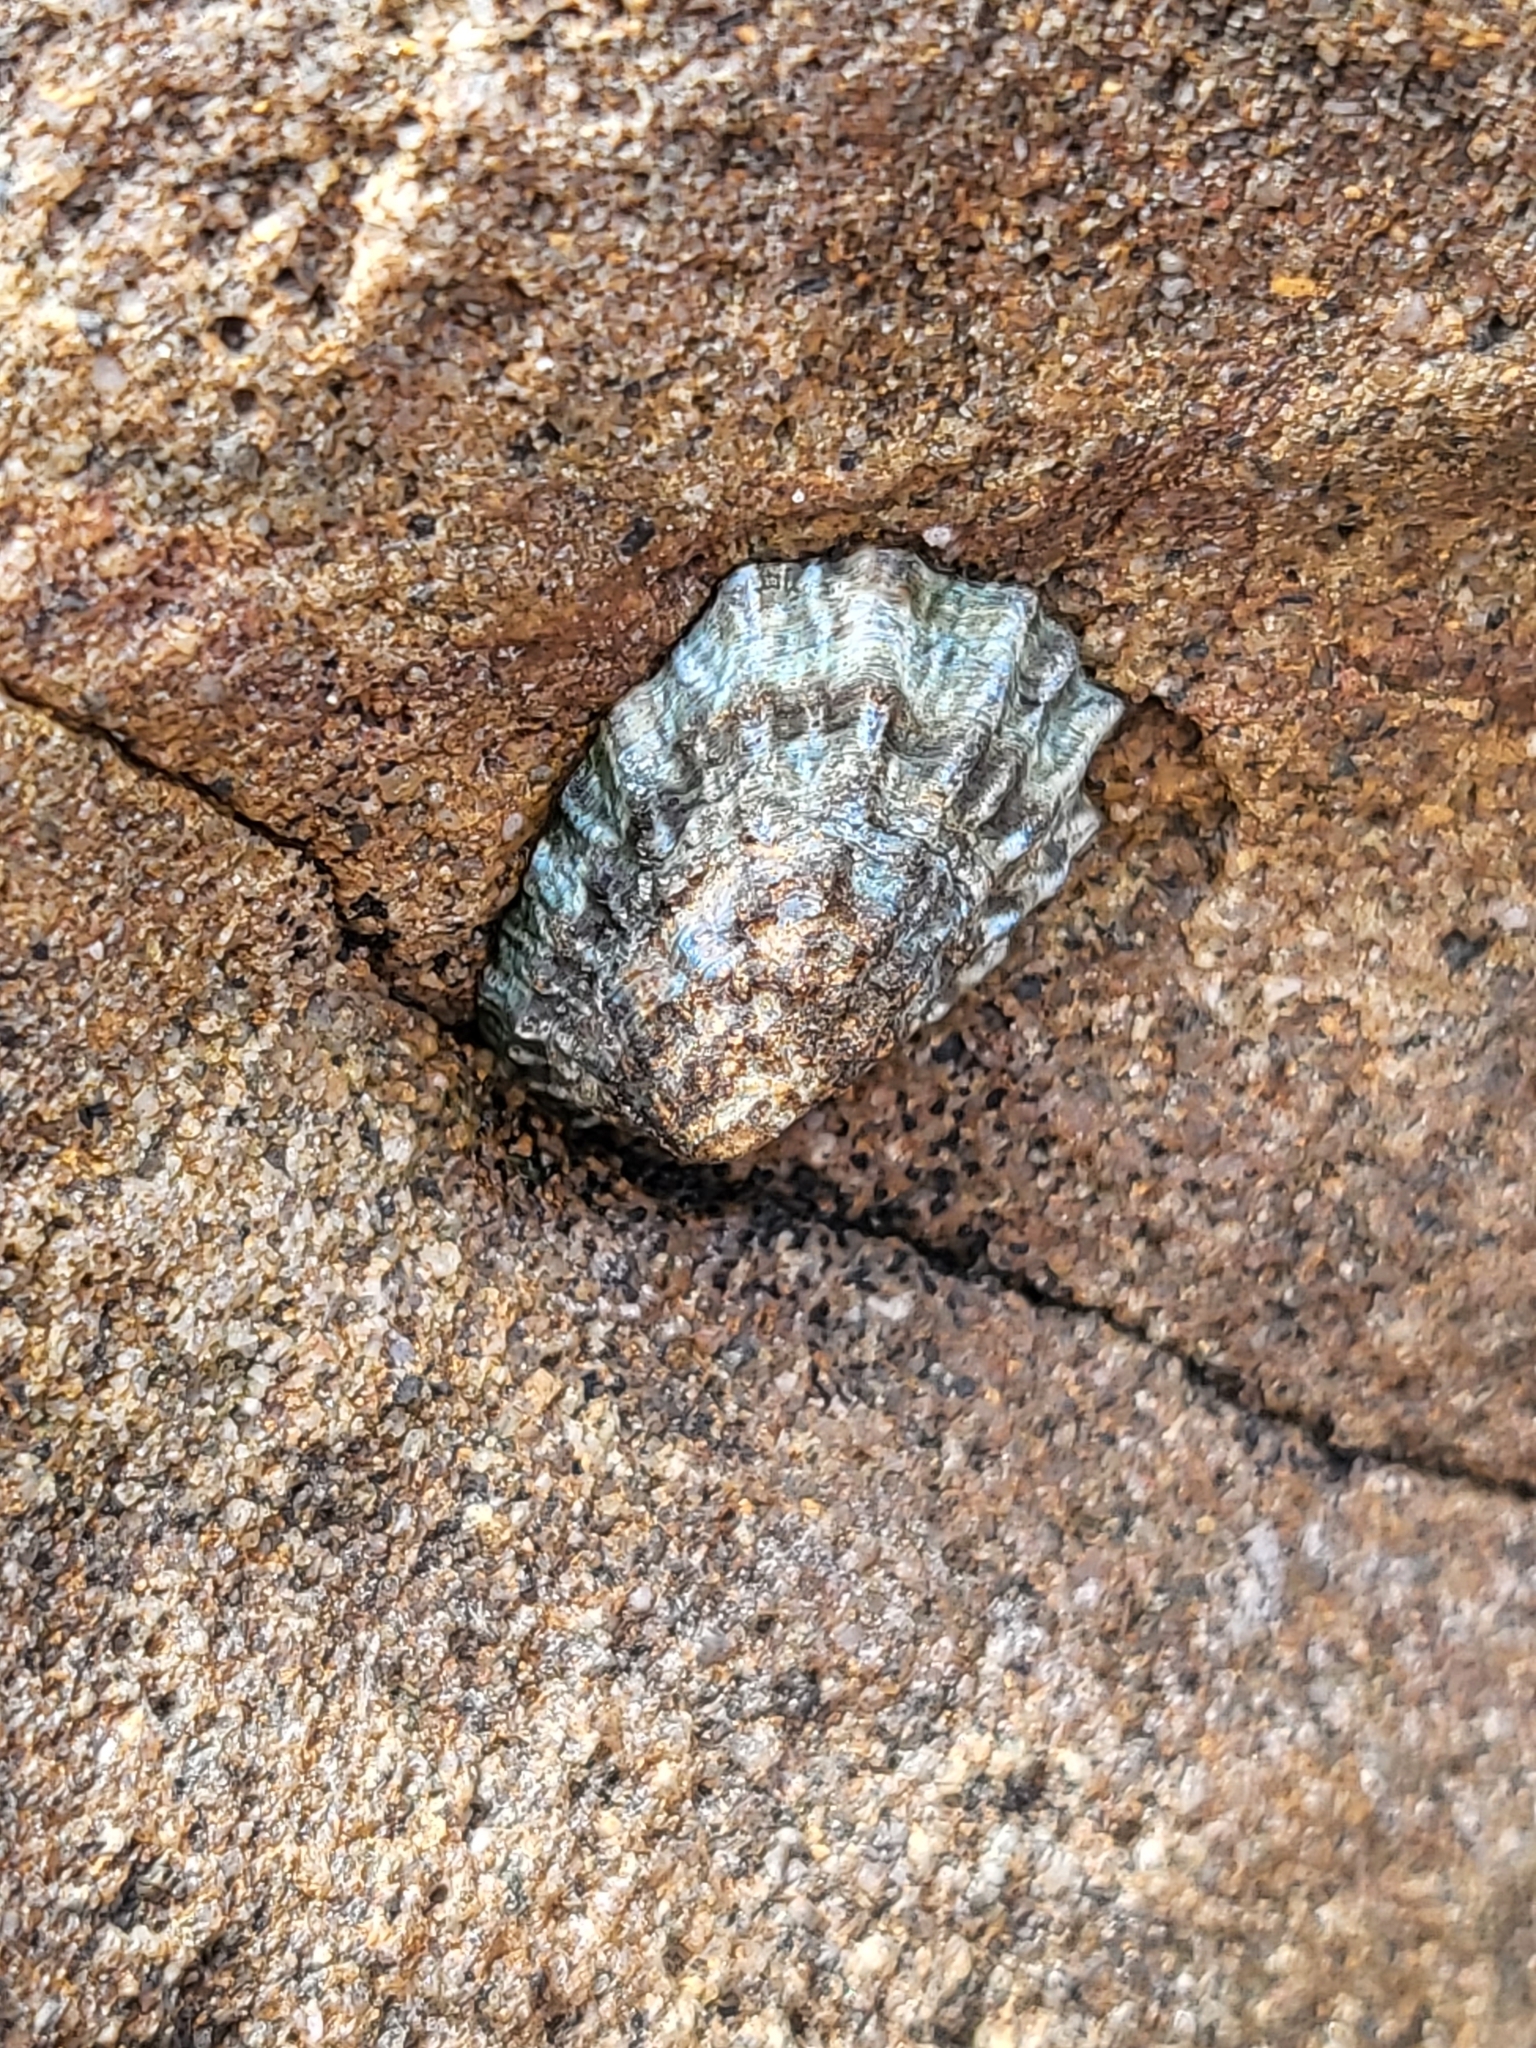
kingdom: Animalia
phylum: Mollusca
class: Gastropoda
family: Lottiidae
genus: Lottia
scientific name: Lottia scabra
